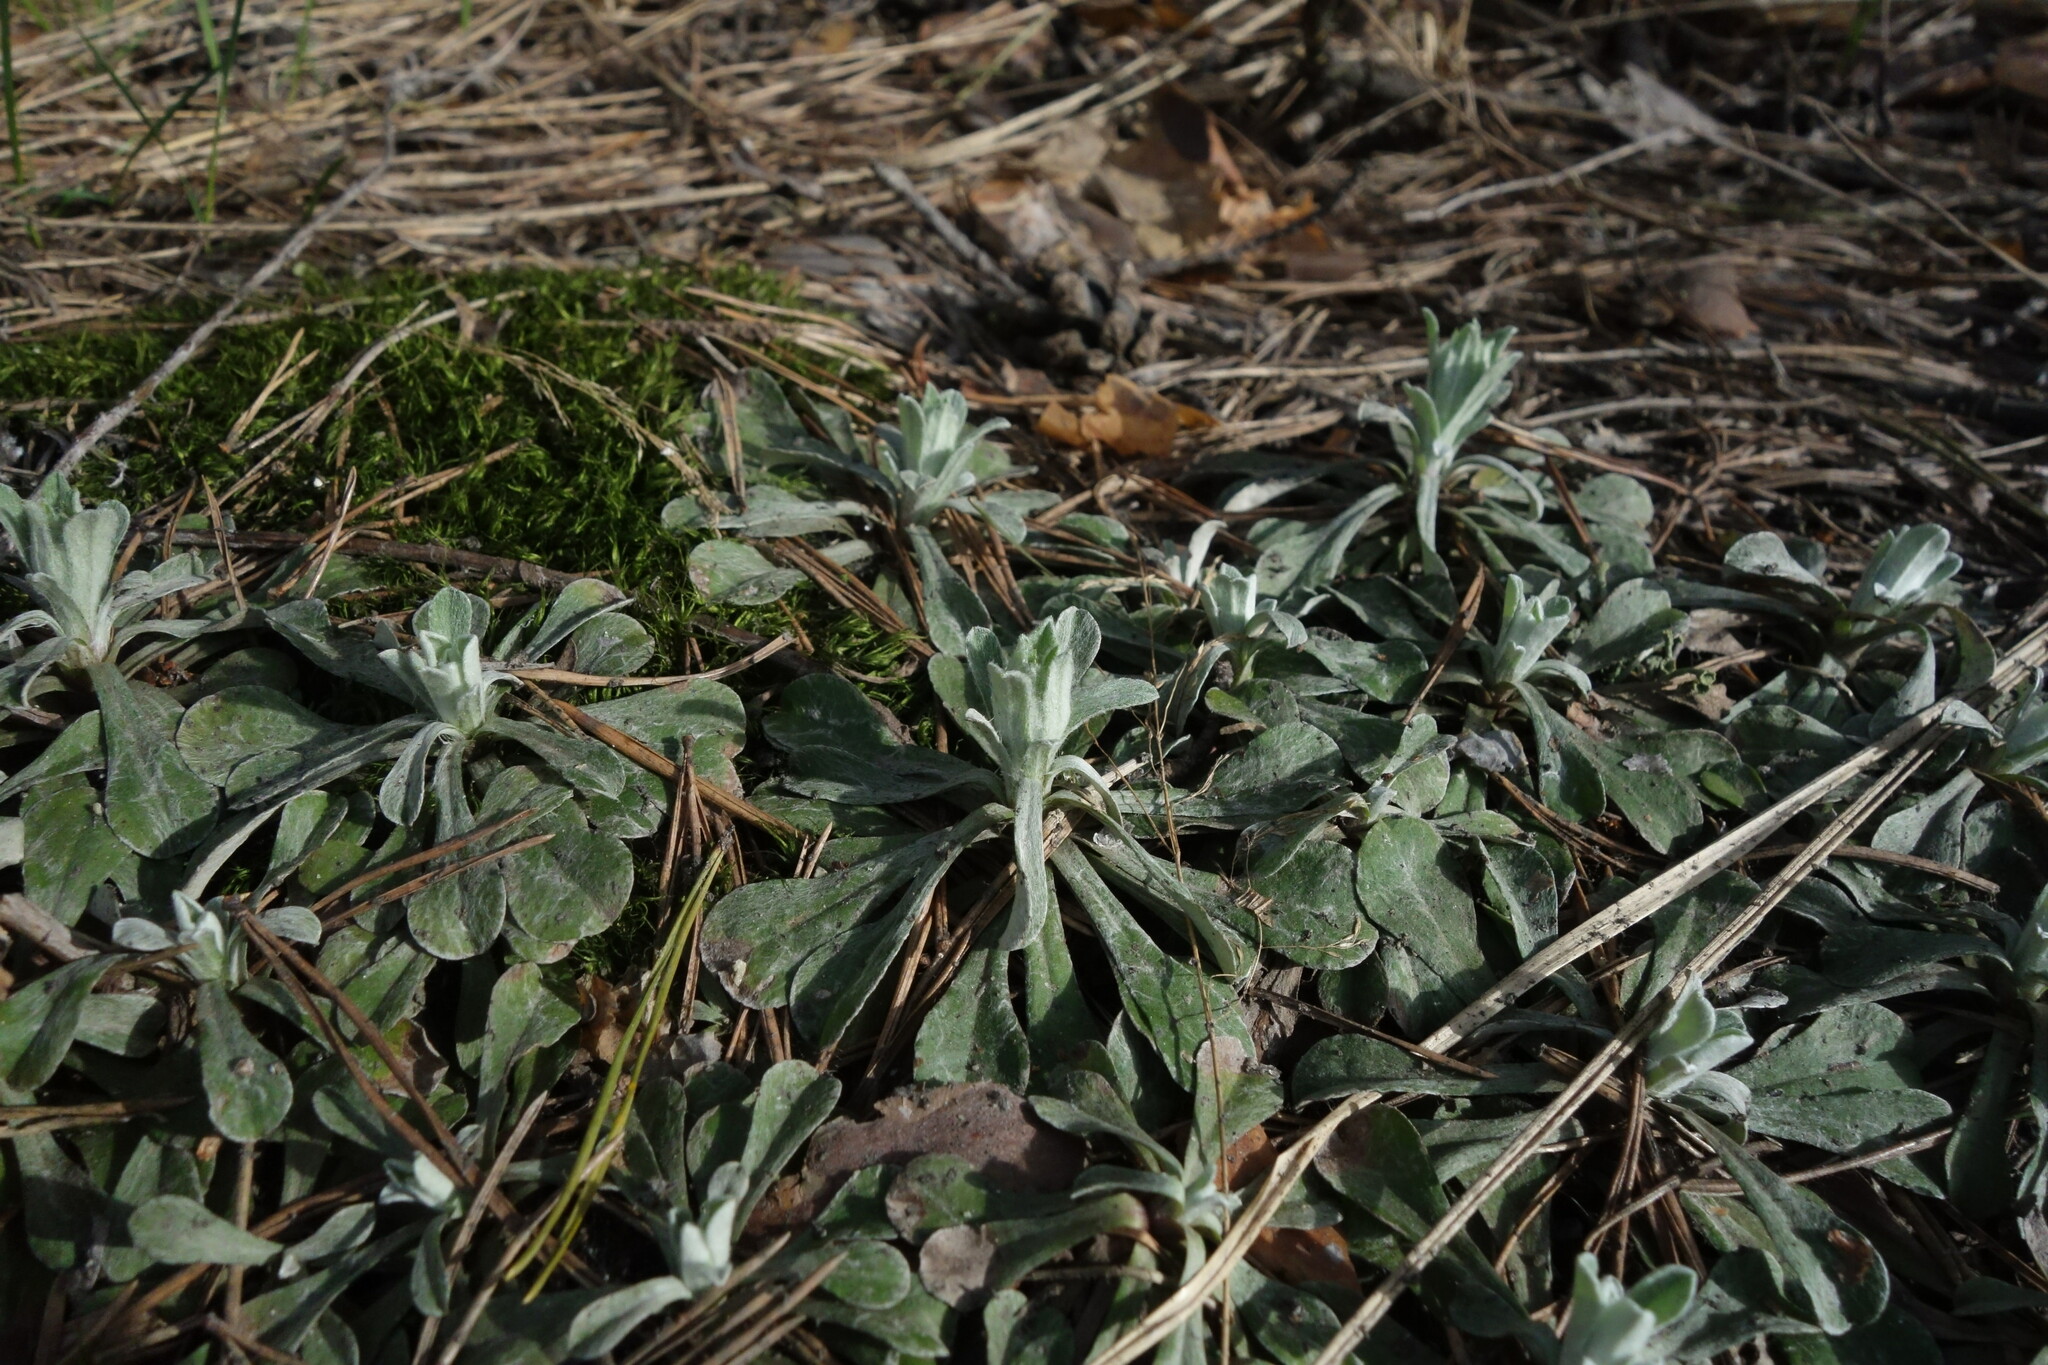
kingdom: Plantae
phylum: Tracheophyta
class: Magnoliopsida
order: Asterales
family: Asteraceae
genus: Antennaria
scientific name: Antennaria dioica
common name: Mountain everlasting
